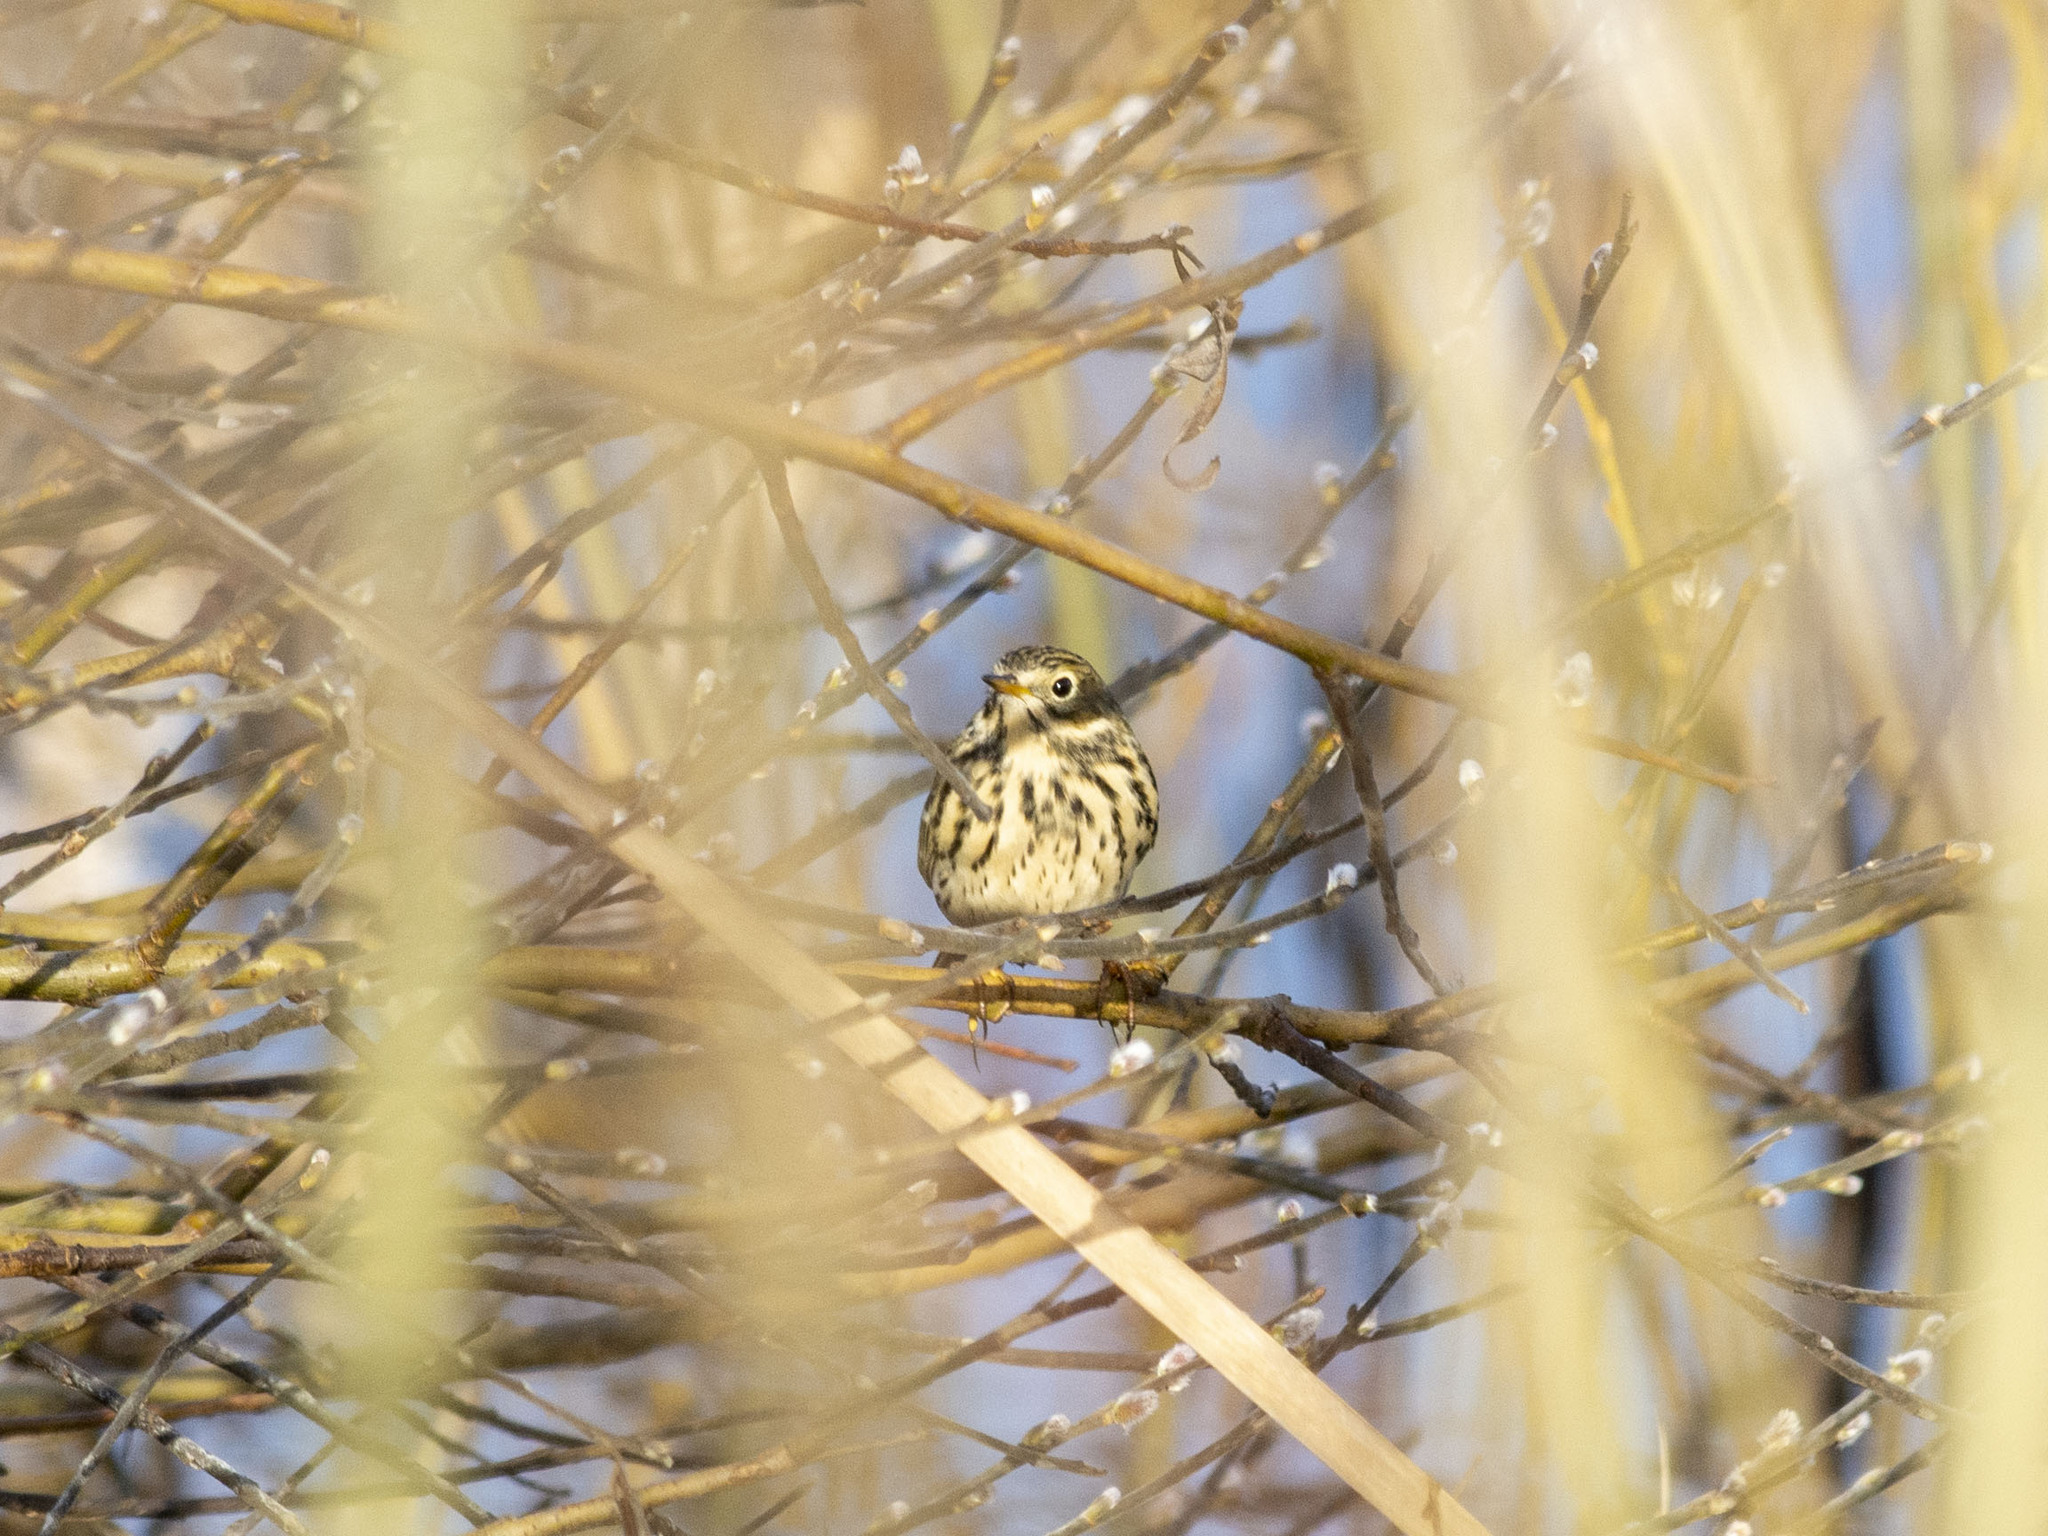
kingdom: Animalia
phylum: Chordata
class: Aves
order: Passeriformes
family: Motacillidae
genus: Anthus
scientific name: Anthus pratensis
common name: Meadow pipit
